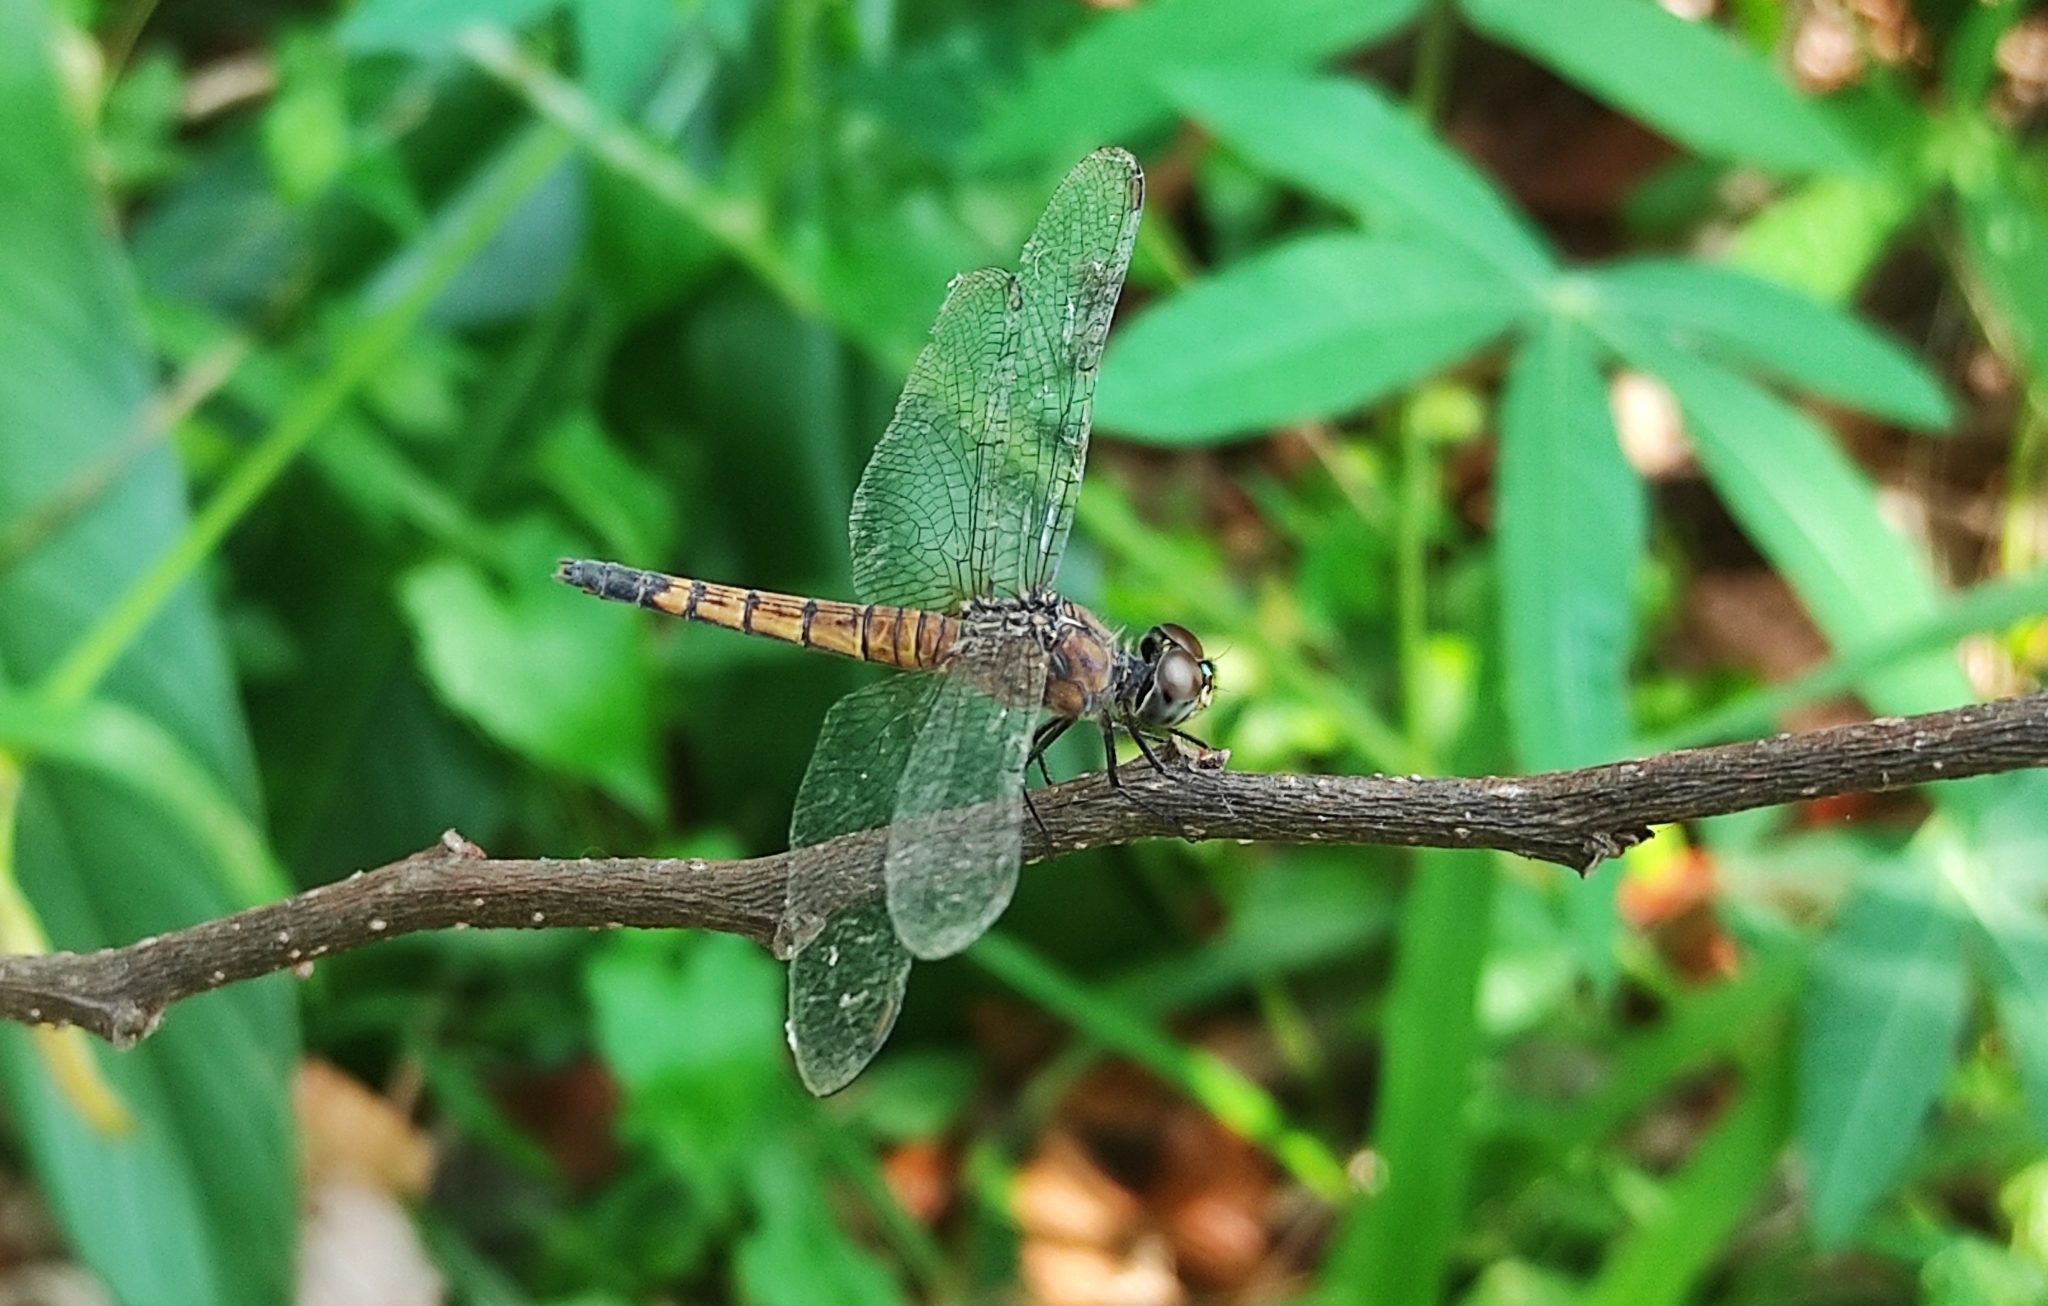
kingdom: Animalia
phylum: Arthropoda
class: Insecta
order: Odonata
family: Libellulidae
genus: Brachydiplax
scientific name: Brachydiplax chalybea
